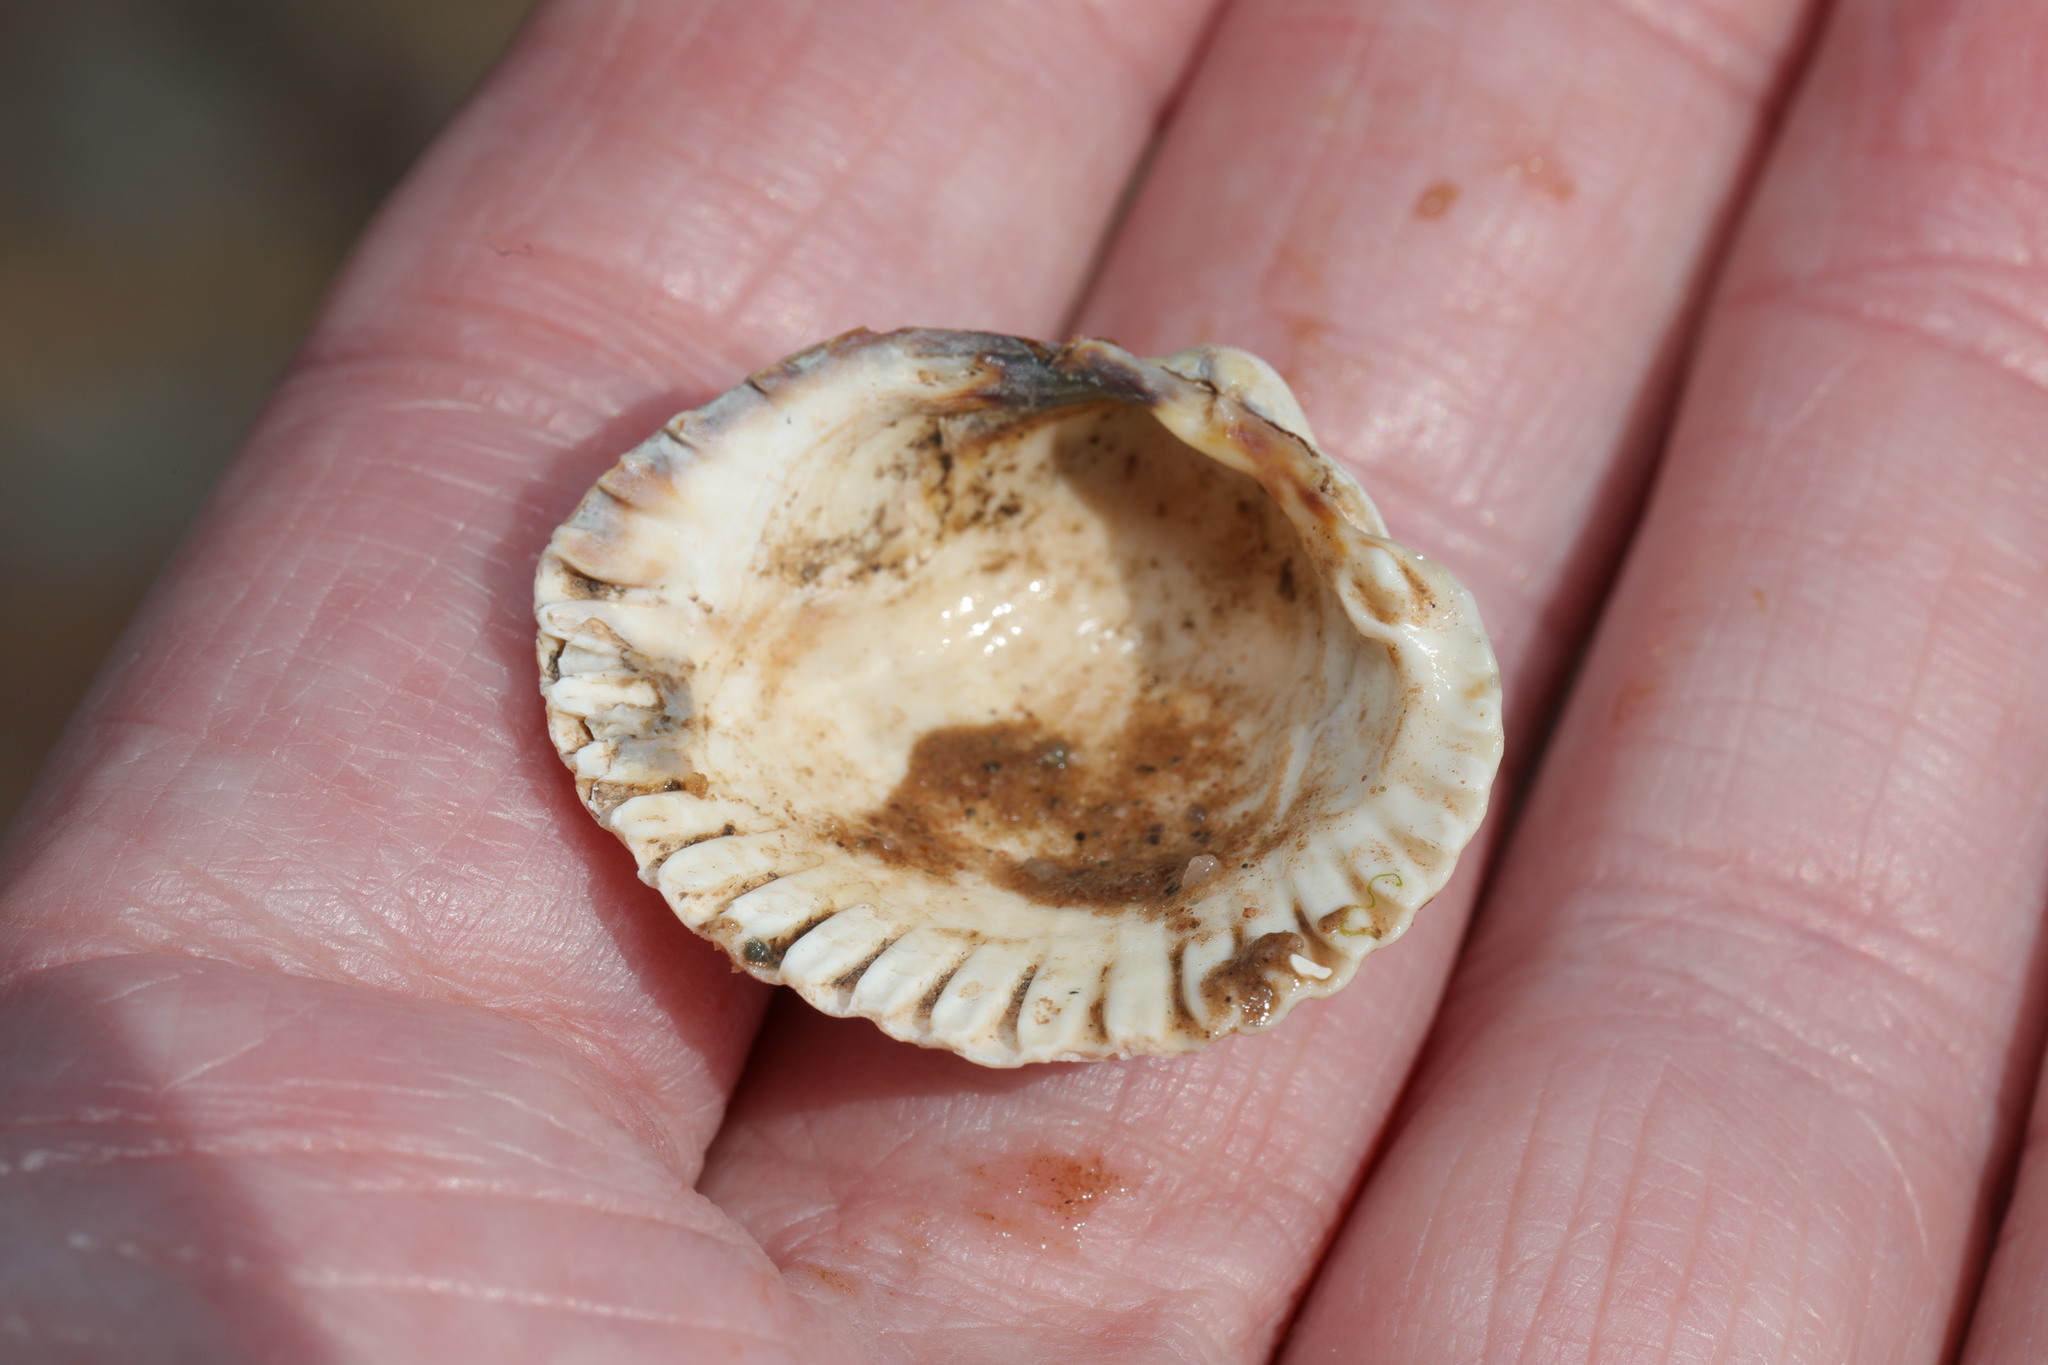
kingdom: Animalia
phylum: Mollusca
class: Bivalvia
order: Cardiida
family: Cardiidae
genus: Cerastoderma
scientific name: Cerastoderma edule
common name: Common cockle
